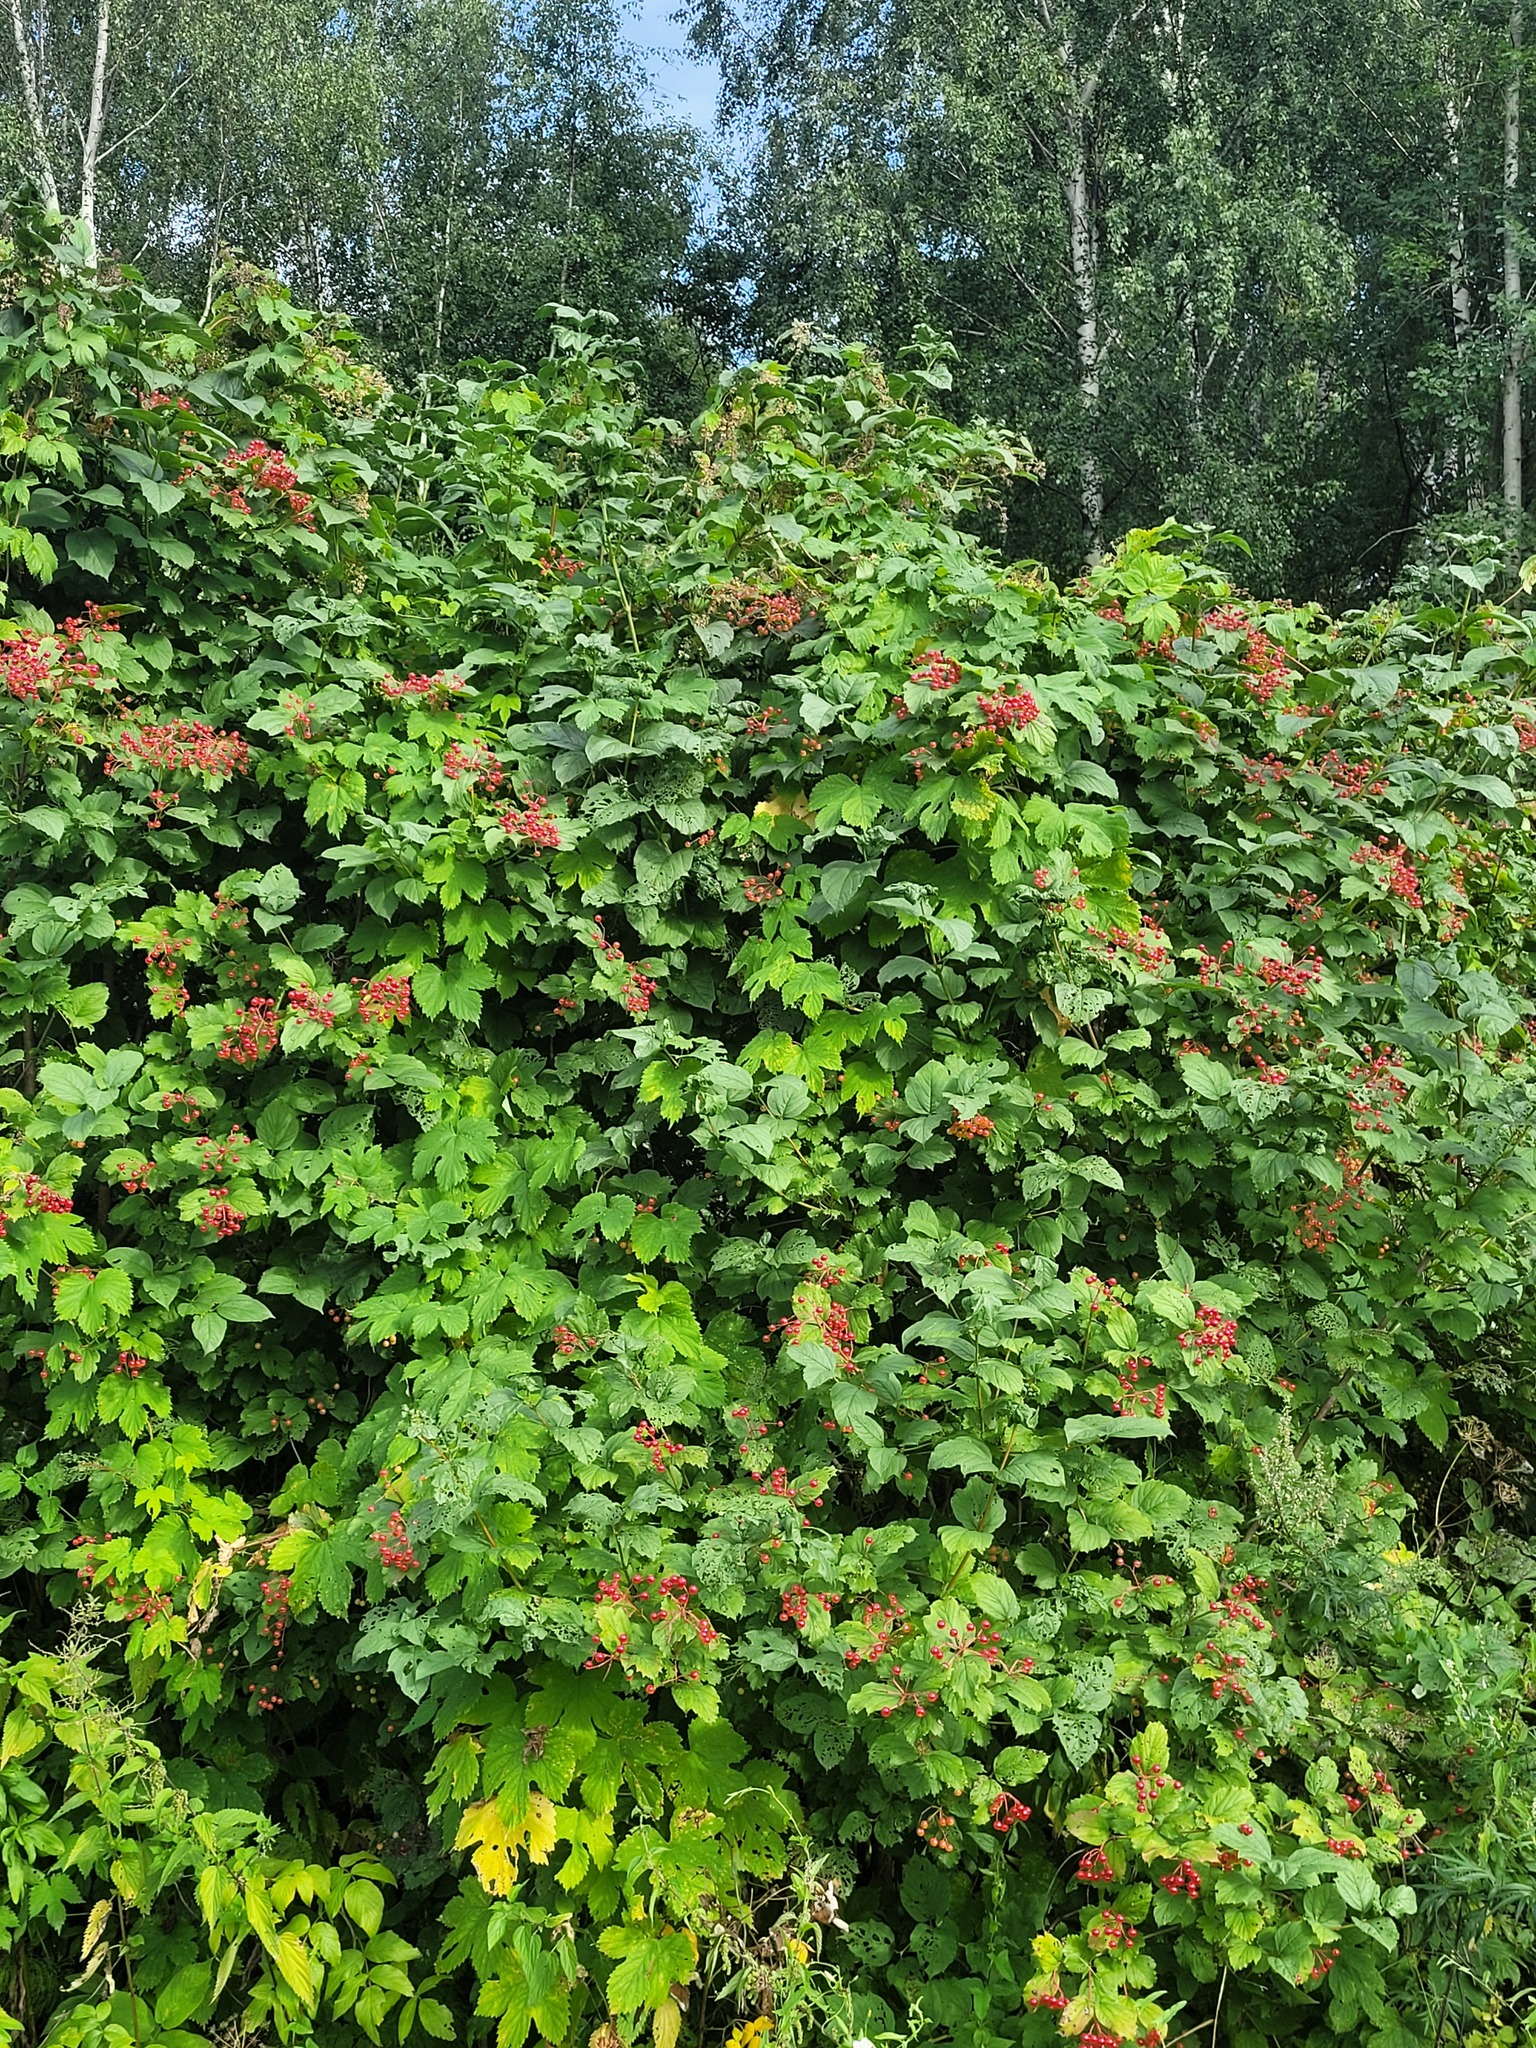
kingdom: Plantae
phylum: Tracheophyta
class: Magnoliopsida
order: Dipsacales
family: Viburnaceae
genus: Viburnum
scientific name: Viburnum opulus
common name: Guelder-rose
